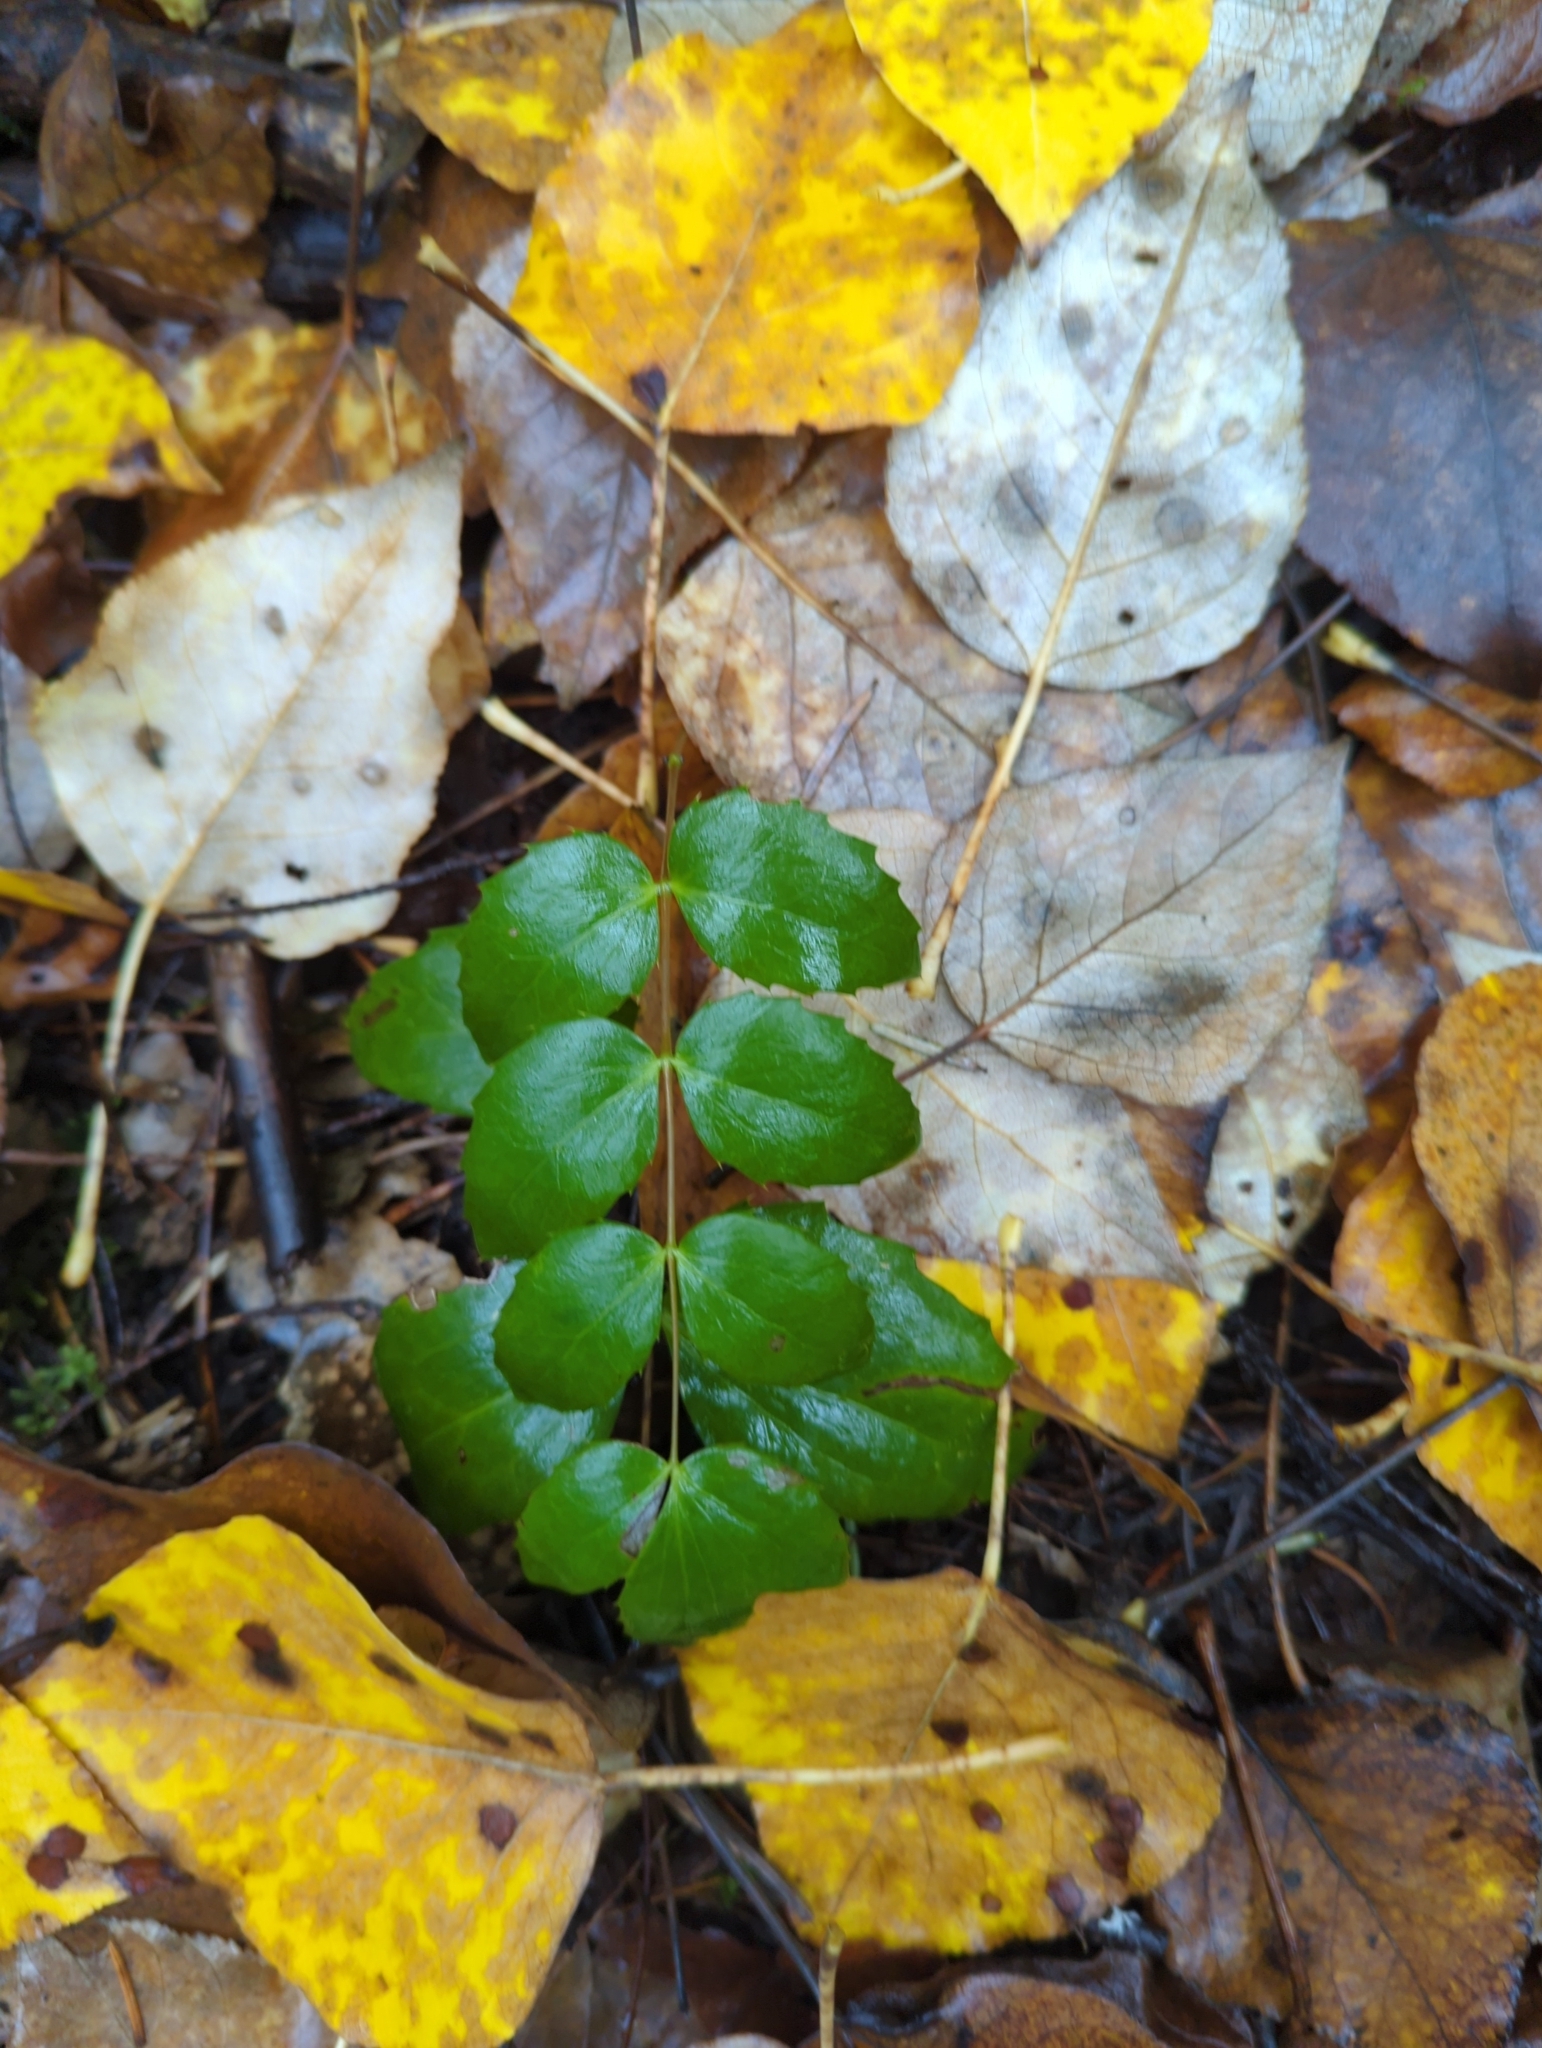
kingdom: Plantae
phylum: Tracheophyta
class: Magnoliopsida
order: Ranunculales
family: Berberidaceae
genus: Mahonia
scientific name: Mahonia nervosa
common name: Cascade oregon-grape
